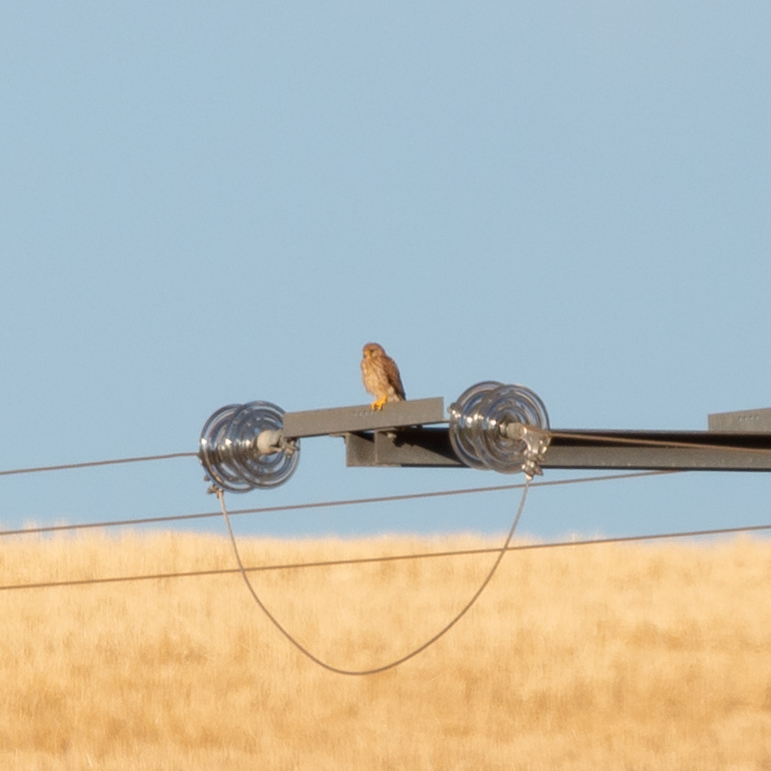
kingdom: Animalia
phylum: Chordata
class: Aves
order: Falconiformes
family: Falconidae
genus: Falco
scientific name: Falco tinnunculus
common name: Common kestrel
